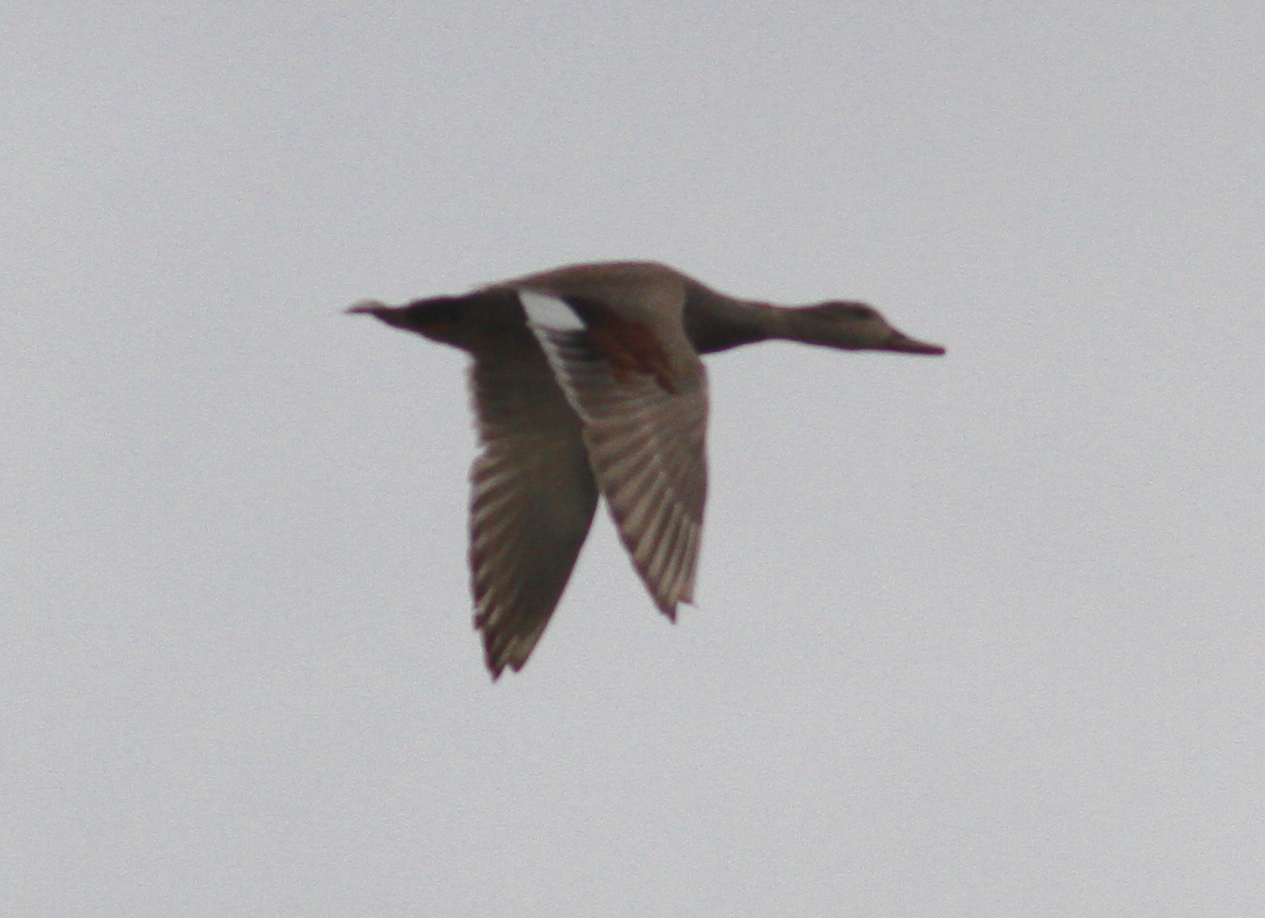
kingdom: Animalia
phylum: Chordata
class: Aves
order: Anseriformes
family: Anatidae
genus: Mareca
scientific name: Mareca strepera
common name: Gadwall
